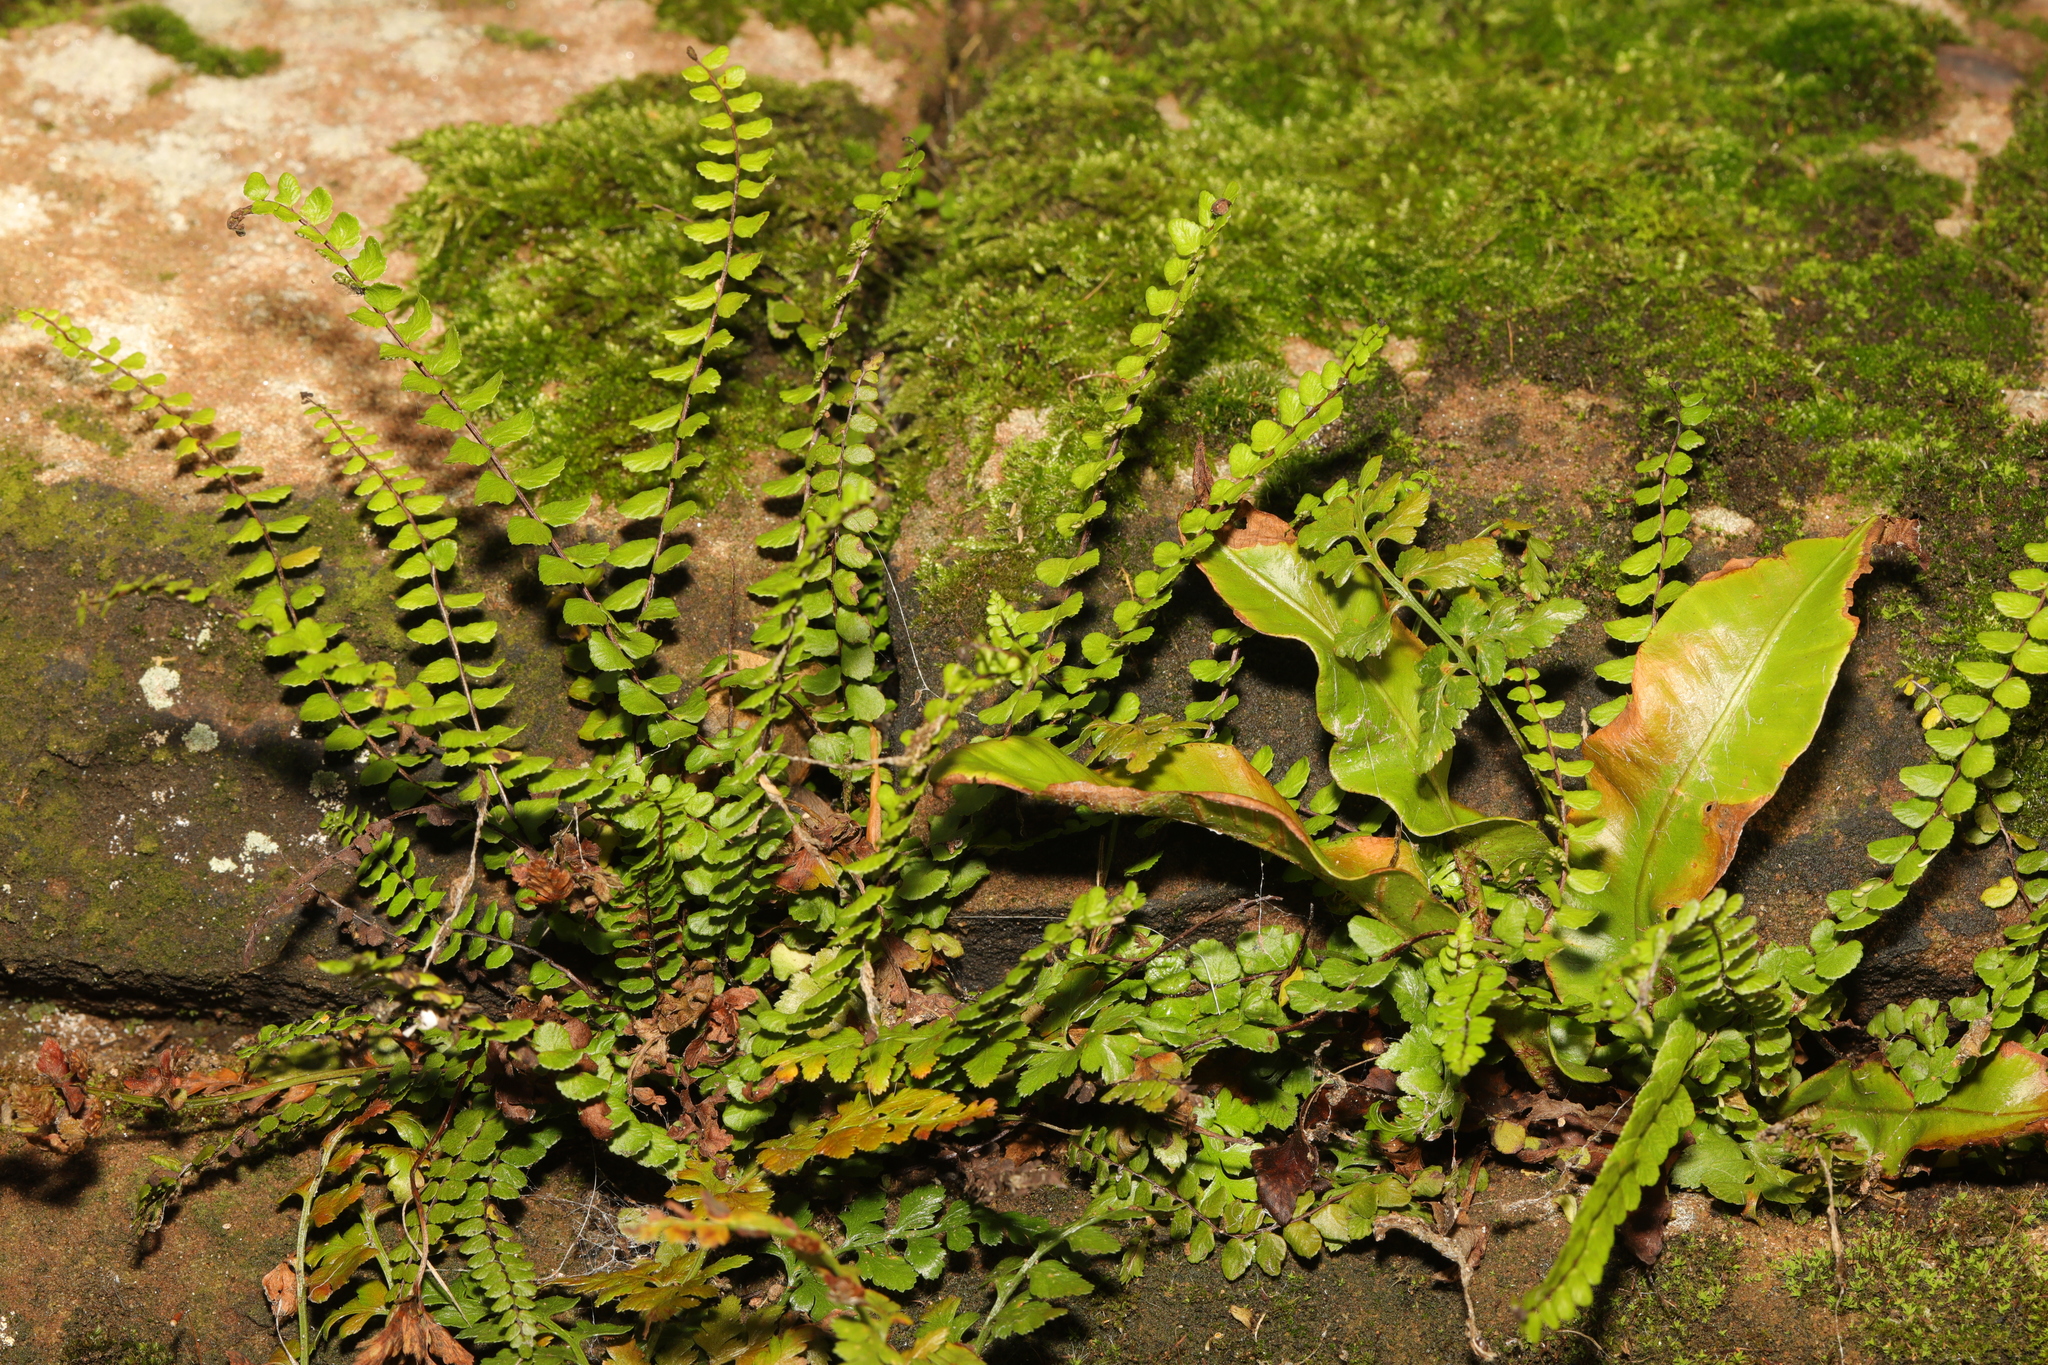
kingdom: Plantae
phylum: Tracheophyta
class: Polypodiopsida
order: Polypodiales
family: Aspleniaceae
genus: Asplenium
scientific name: Asplenium trichomanes
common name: Maidenhair spleenwort
